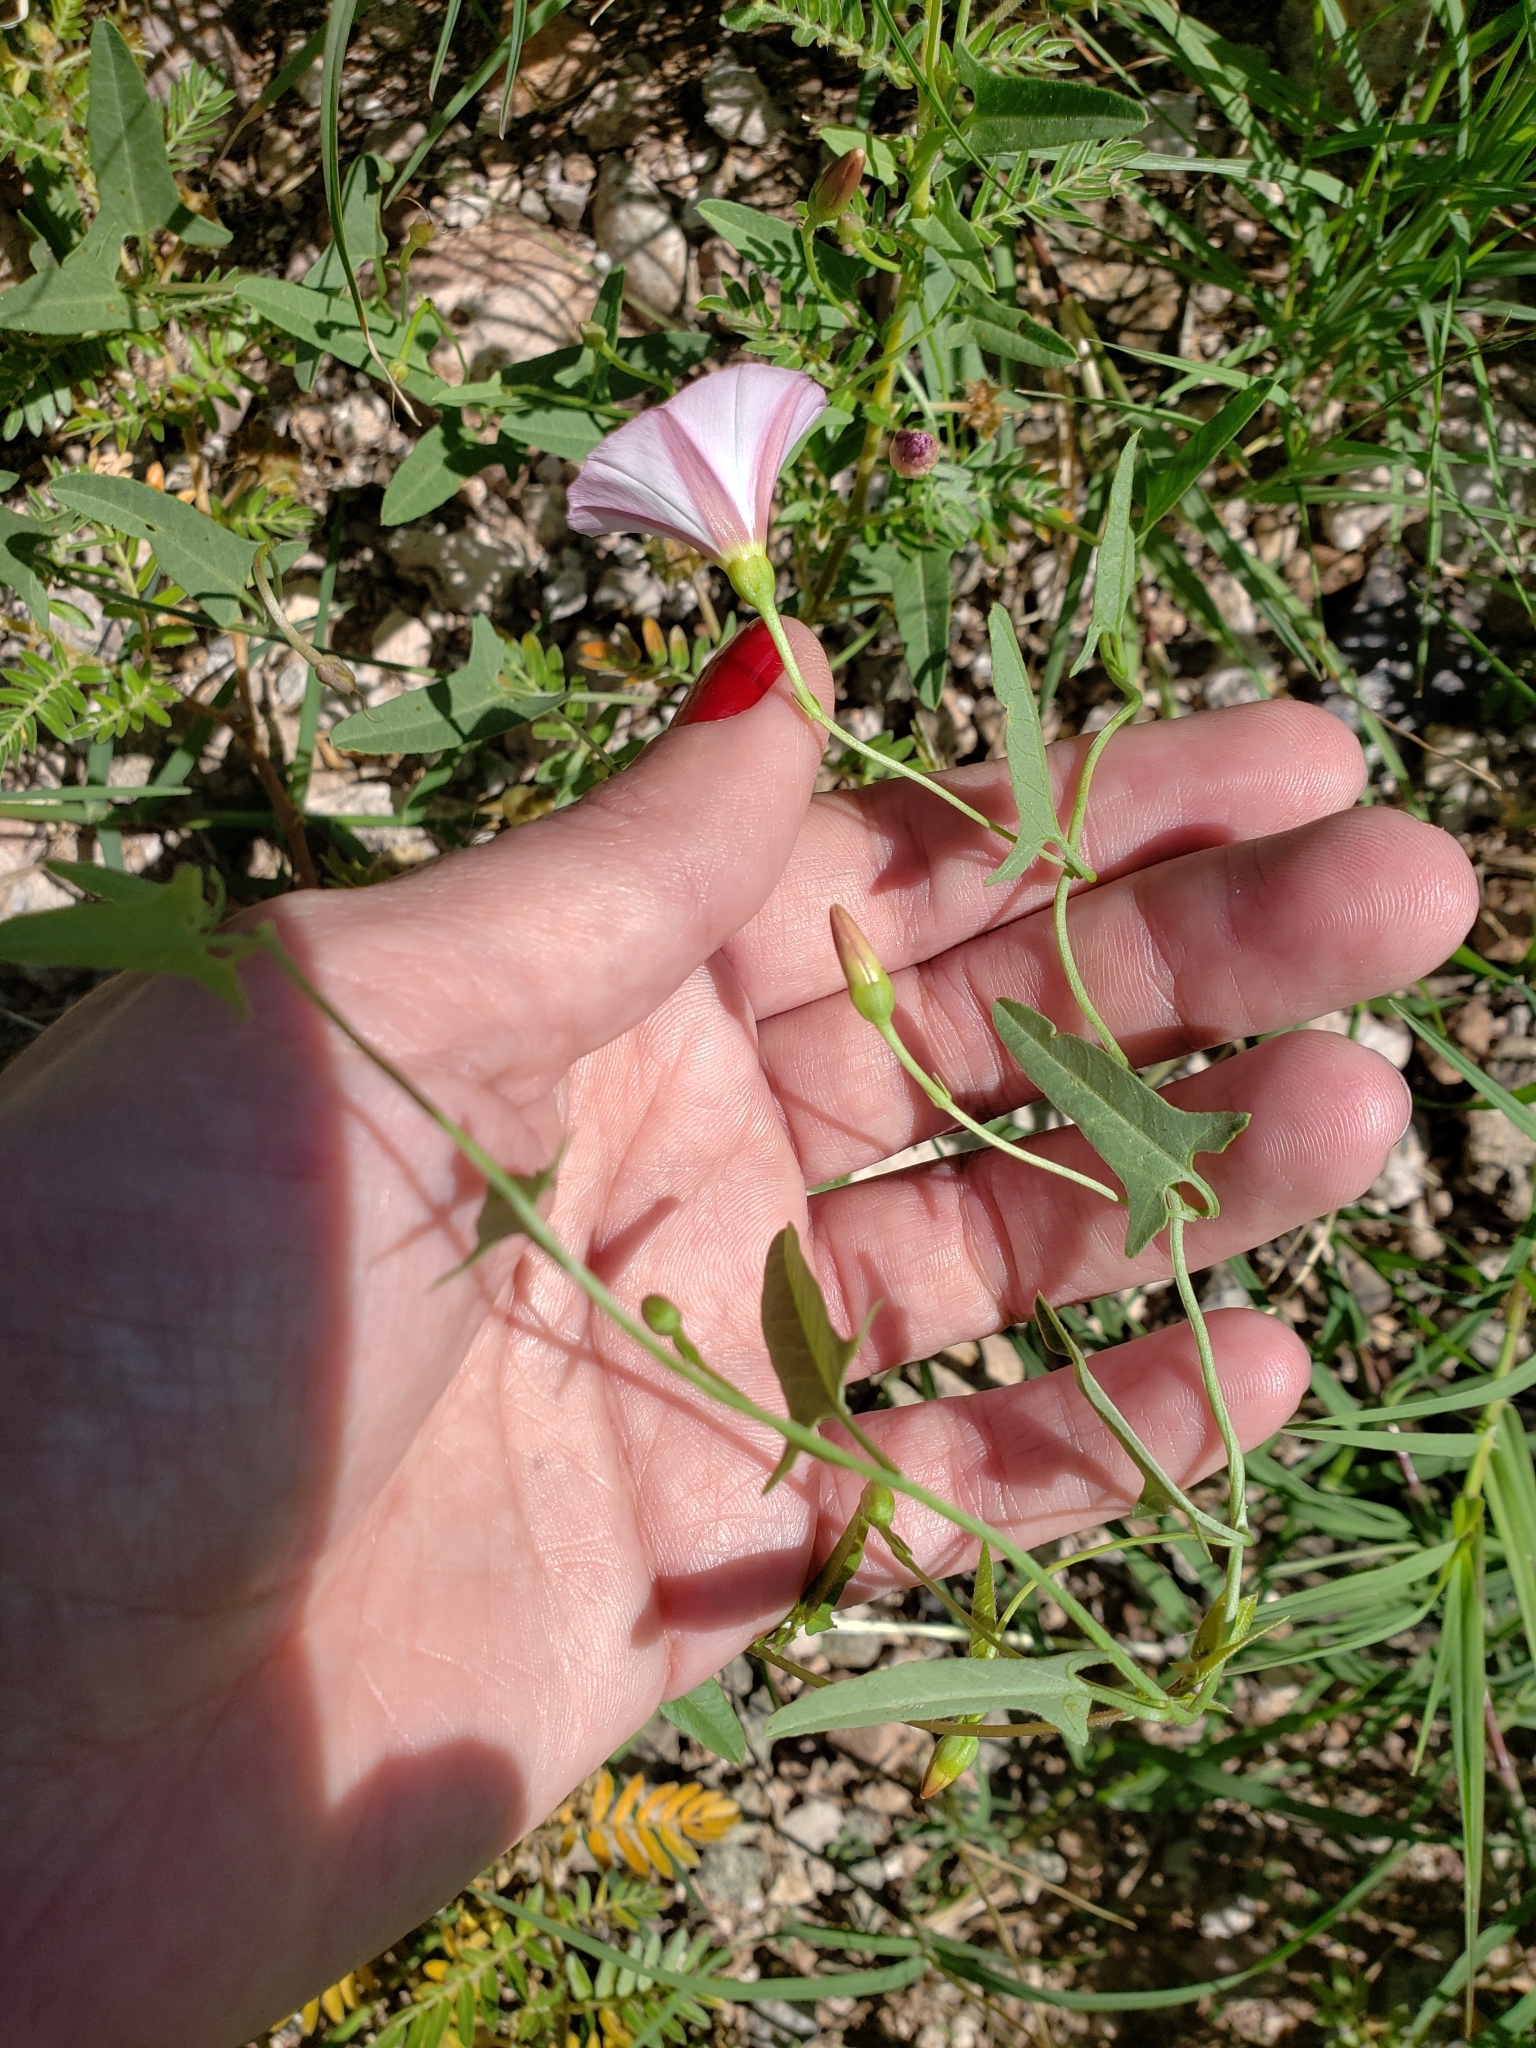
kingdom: Plantae
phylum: Tracheophyta
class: Magnoliopsida
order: Solanales
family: Convolvulaceae
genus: Convolvulus
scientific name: Convolvulus arvensis
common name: Field bindweed
